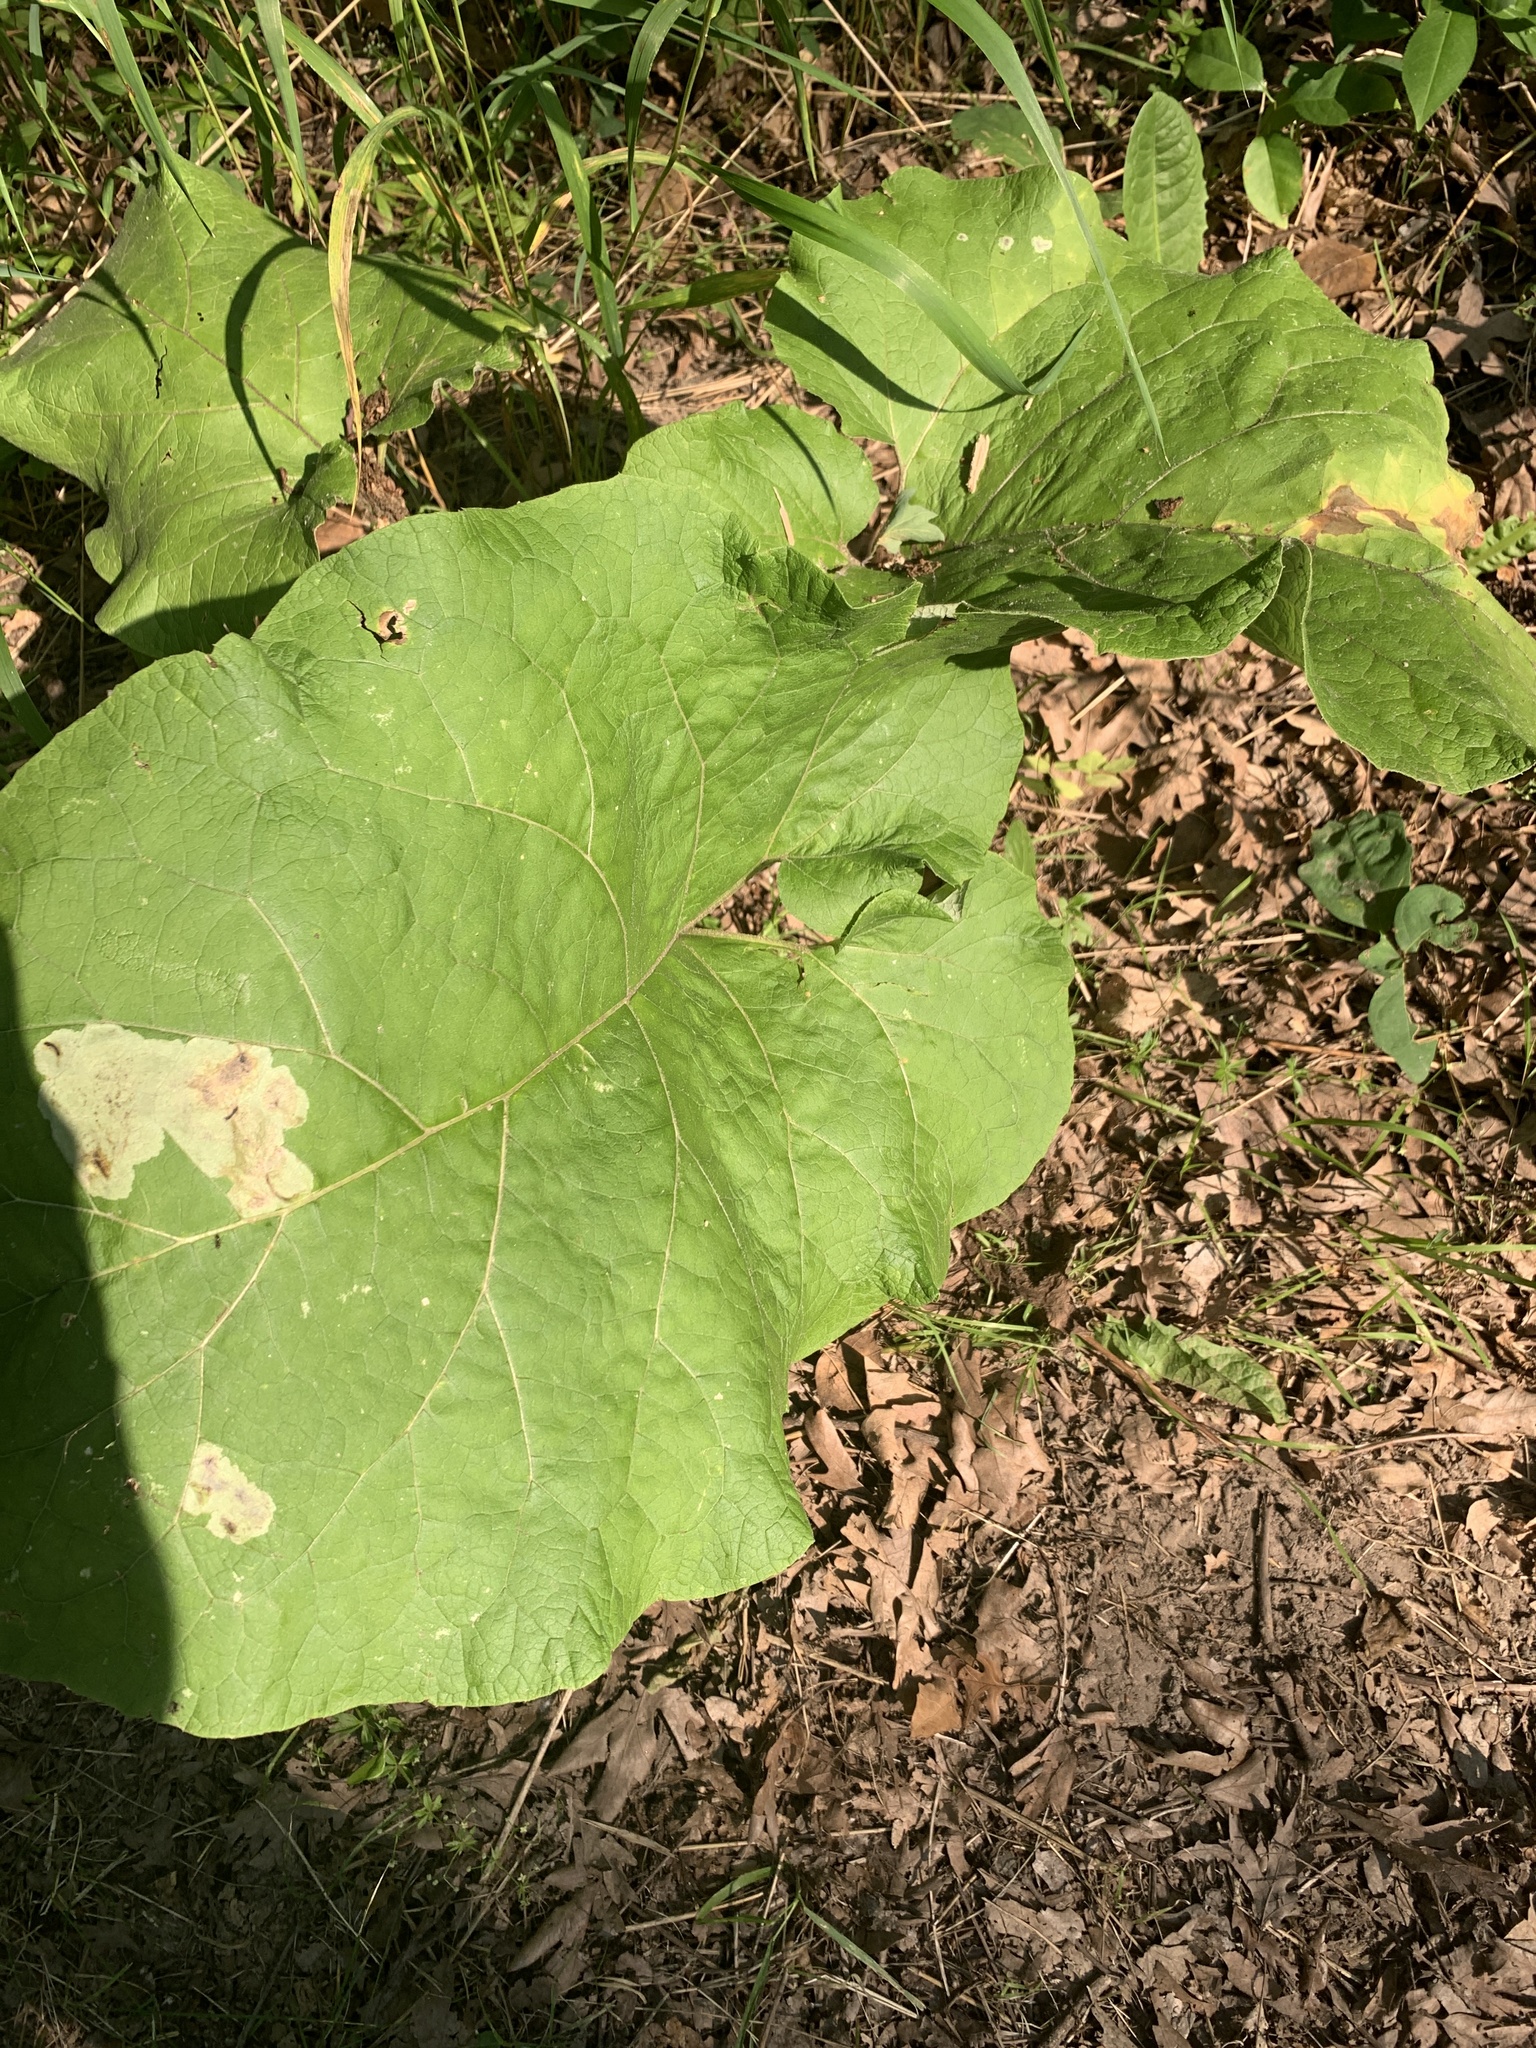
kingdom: Plantae
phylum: Tracheophyta
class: Magnoliopsida
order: Asterales
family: Asteraceae
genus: Arctium
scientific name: Arctium
